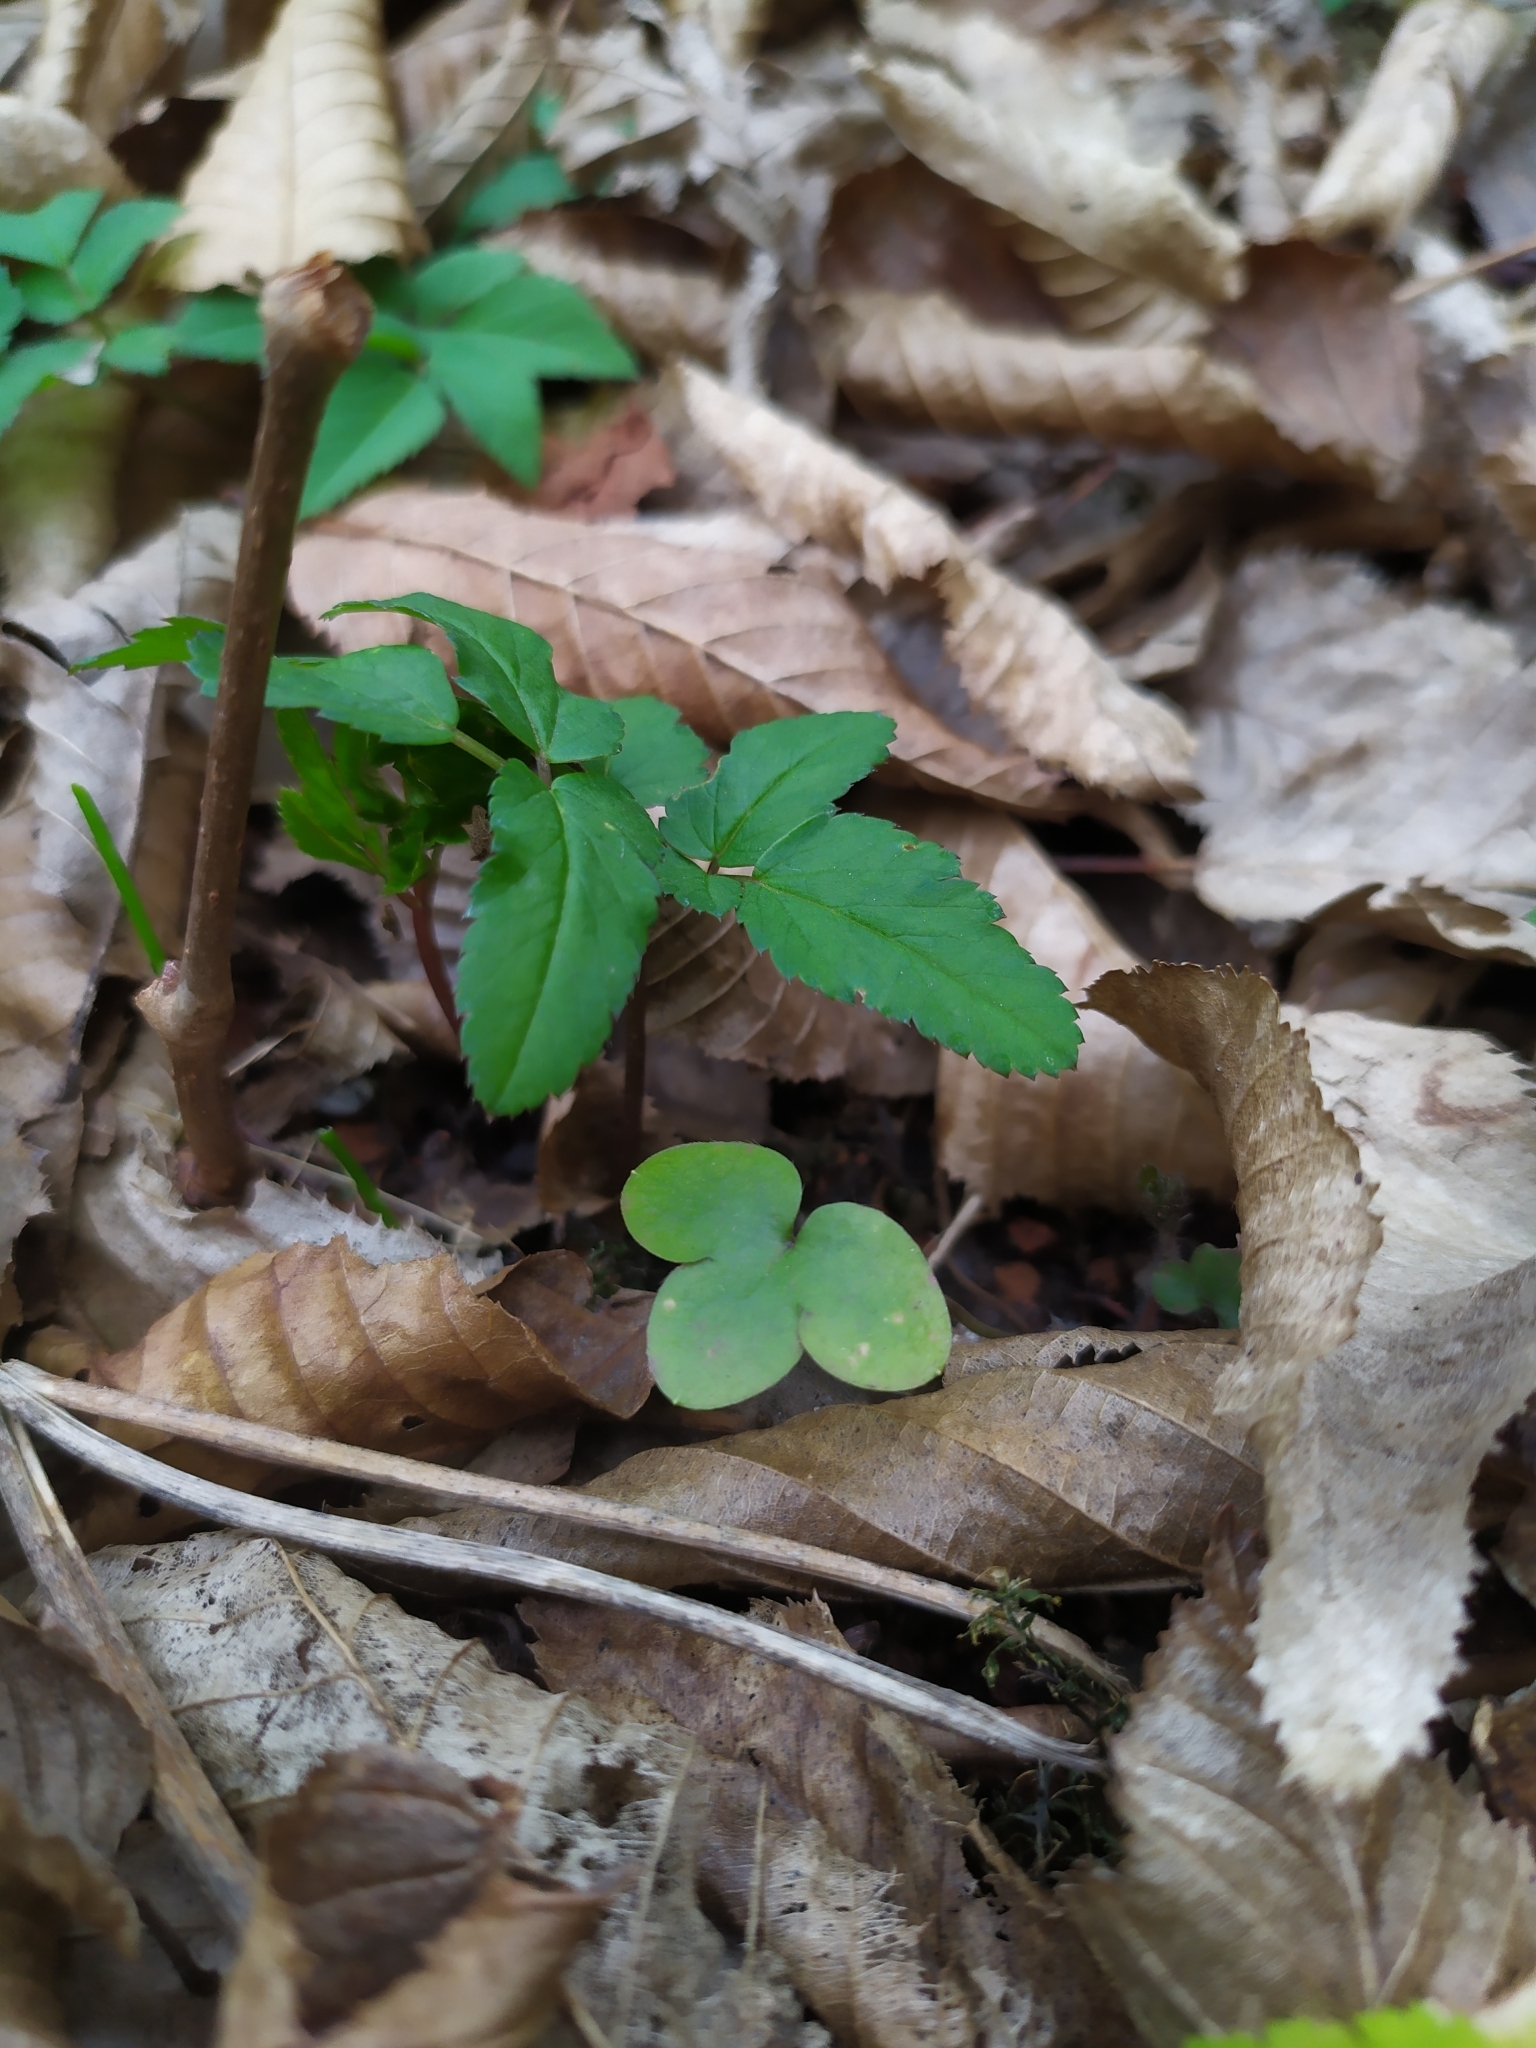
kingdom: Plantae
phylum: Tracheophyta
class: Magnoliopsida
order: Ranunculales
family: Ranunculaceae
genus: Hepatica
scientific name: Hepatica nobilis
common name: Liverleaf
